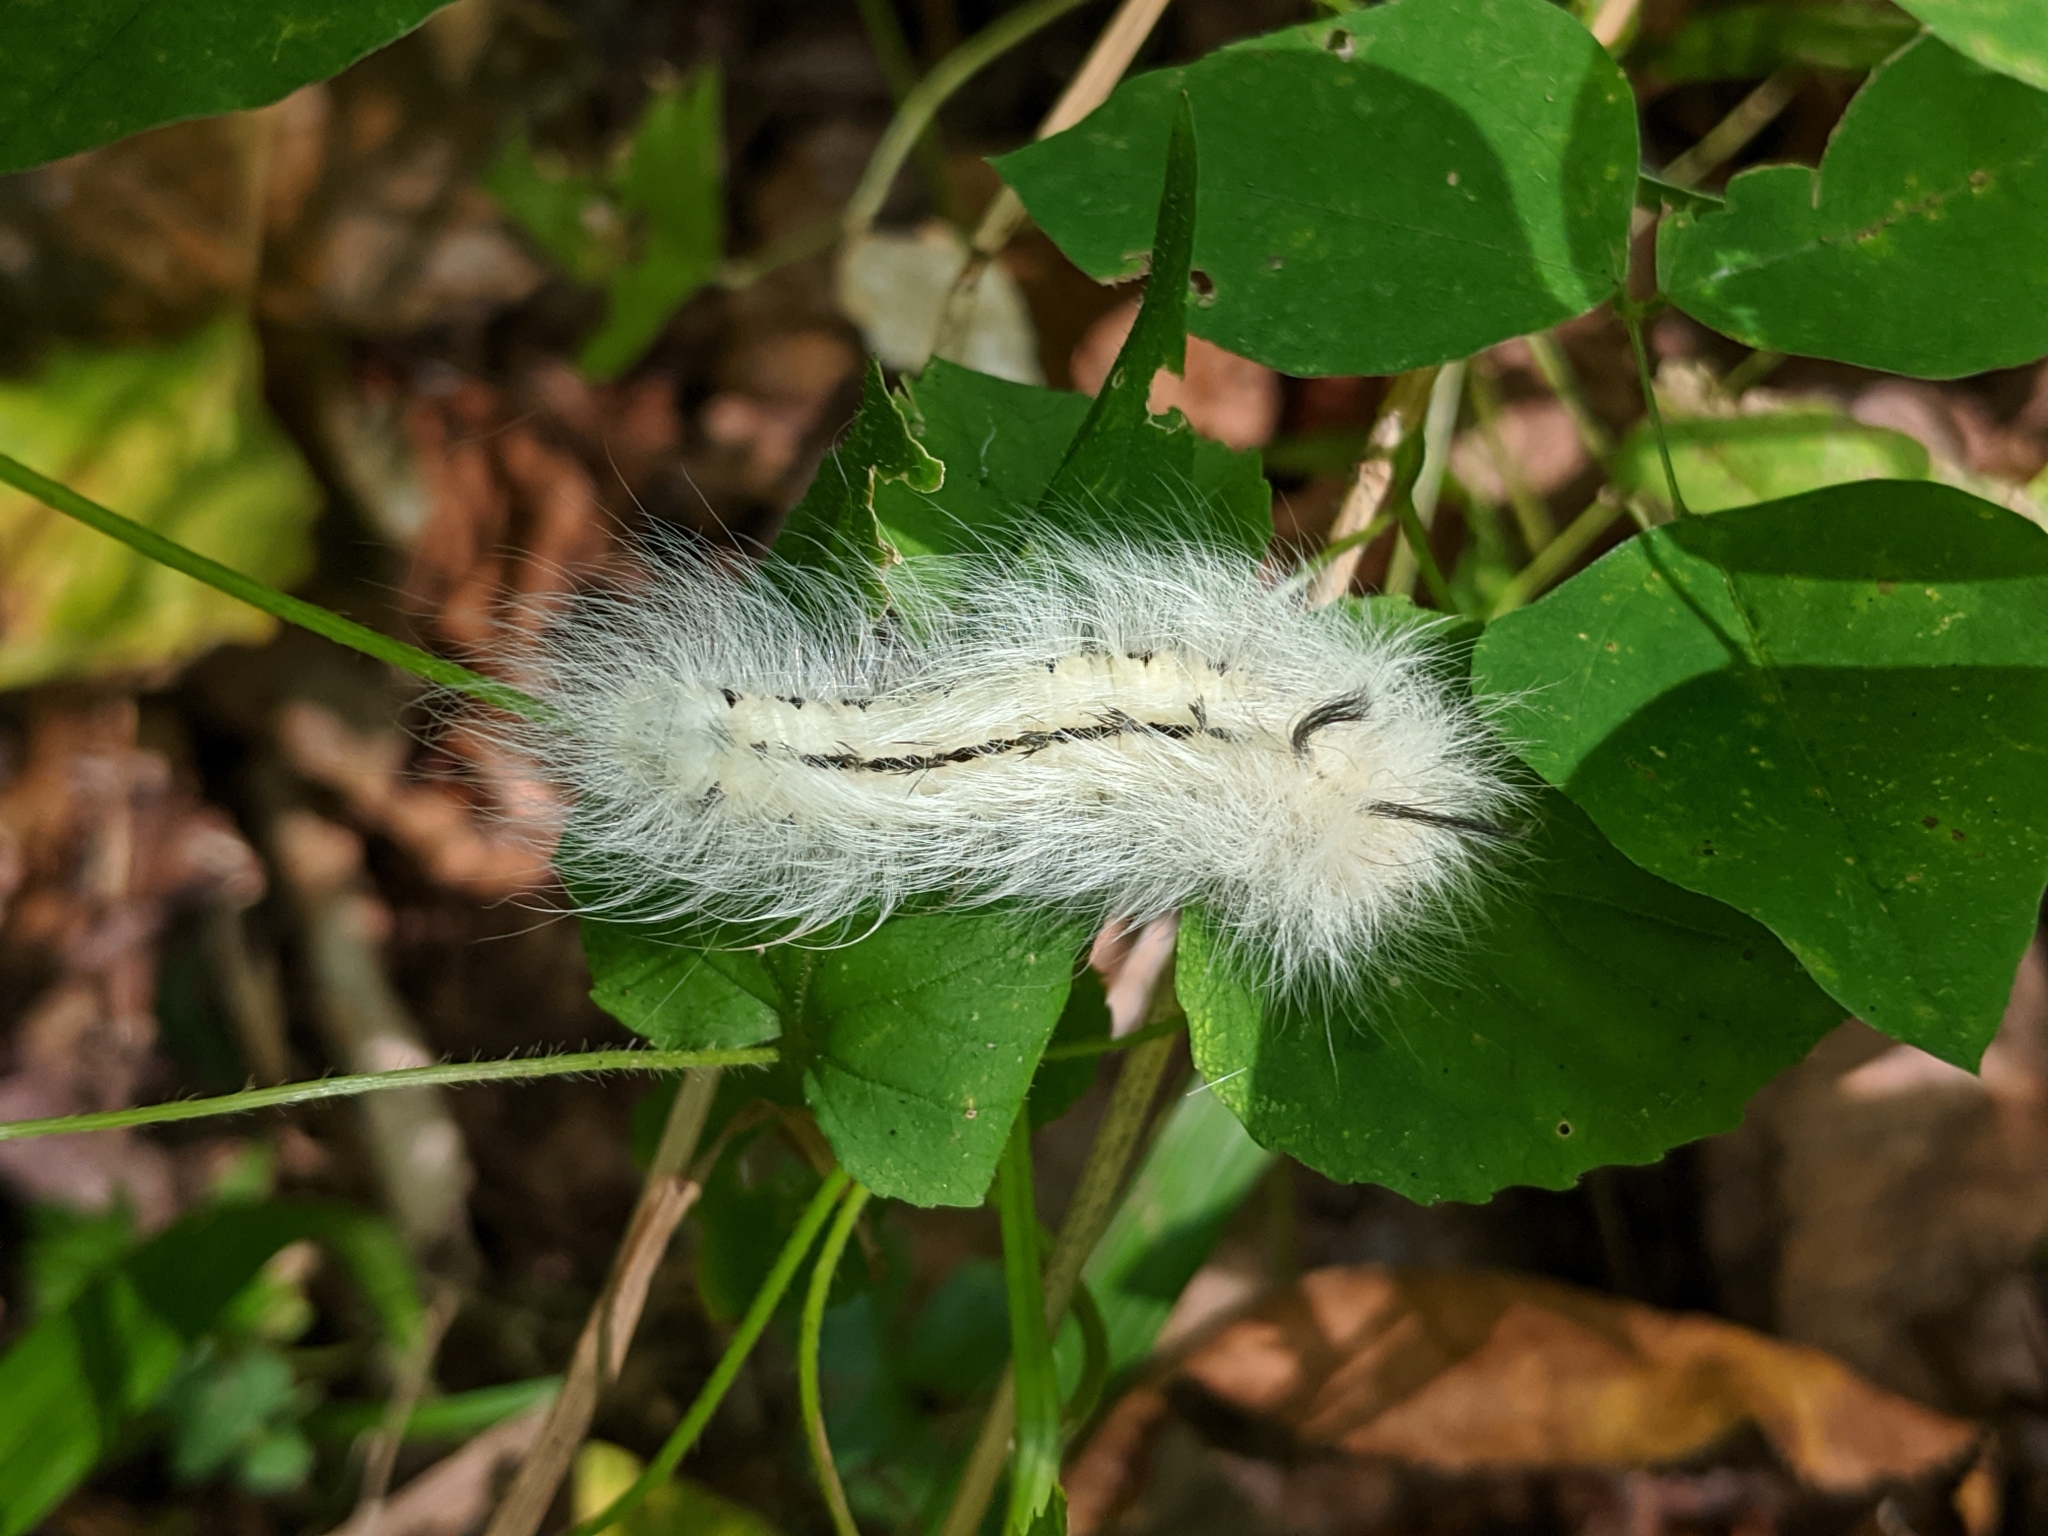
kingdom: Animalia
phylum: Arthropoda
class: Insecta
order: Lepidoptera
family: Apatelodidae
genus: Hygrochroa
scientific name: Hygrochroa Apatelodes torrefacta
